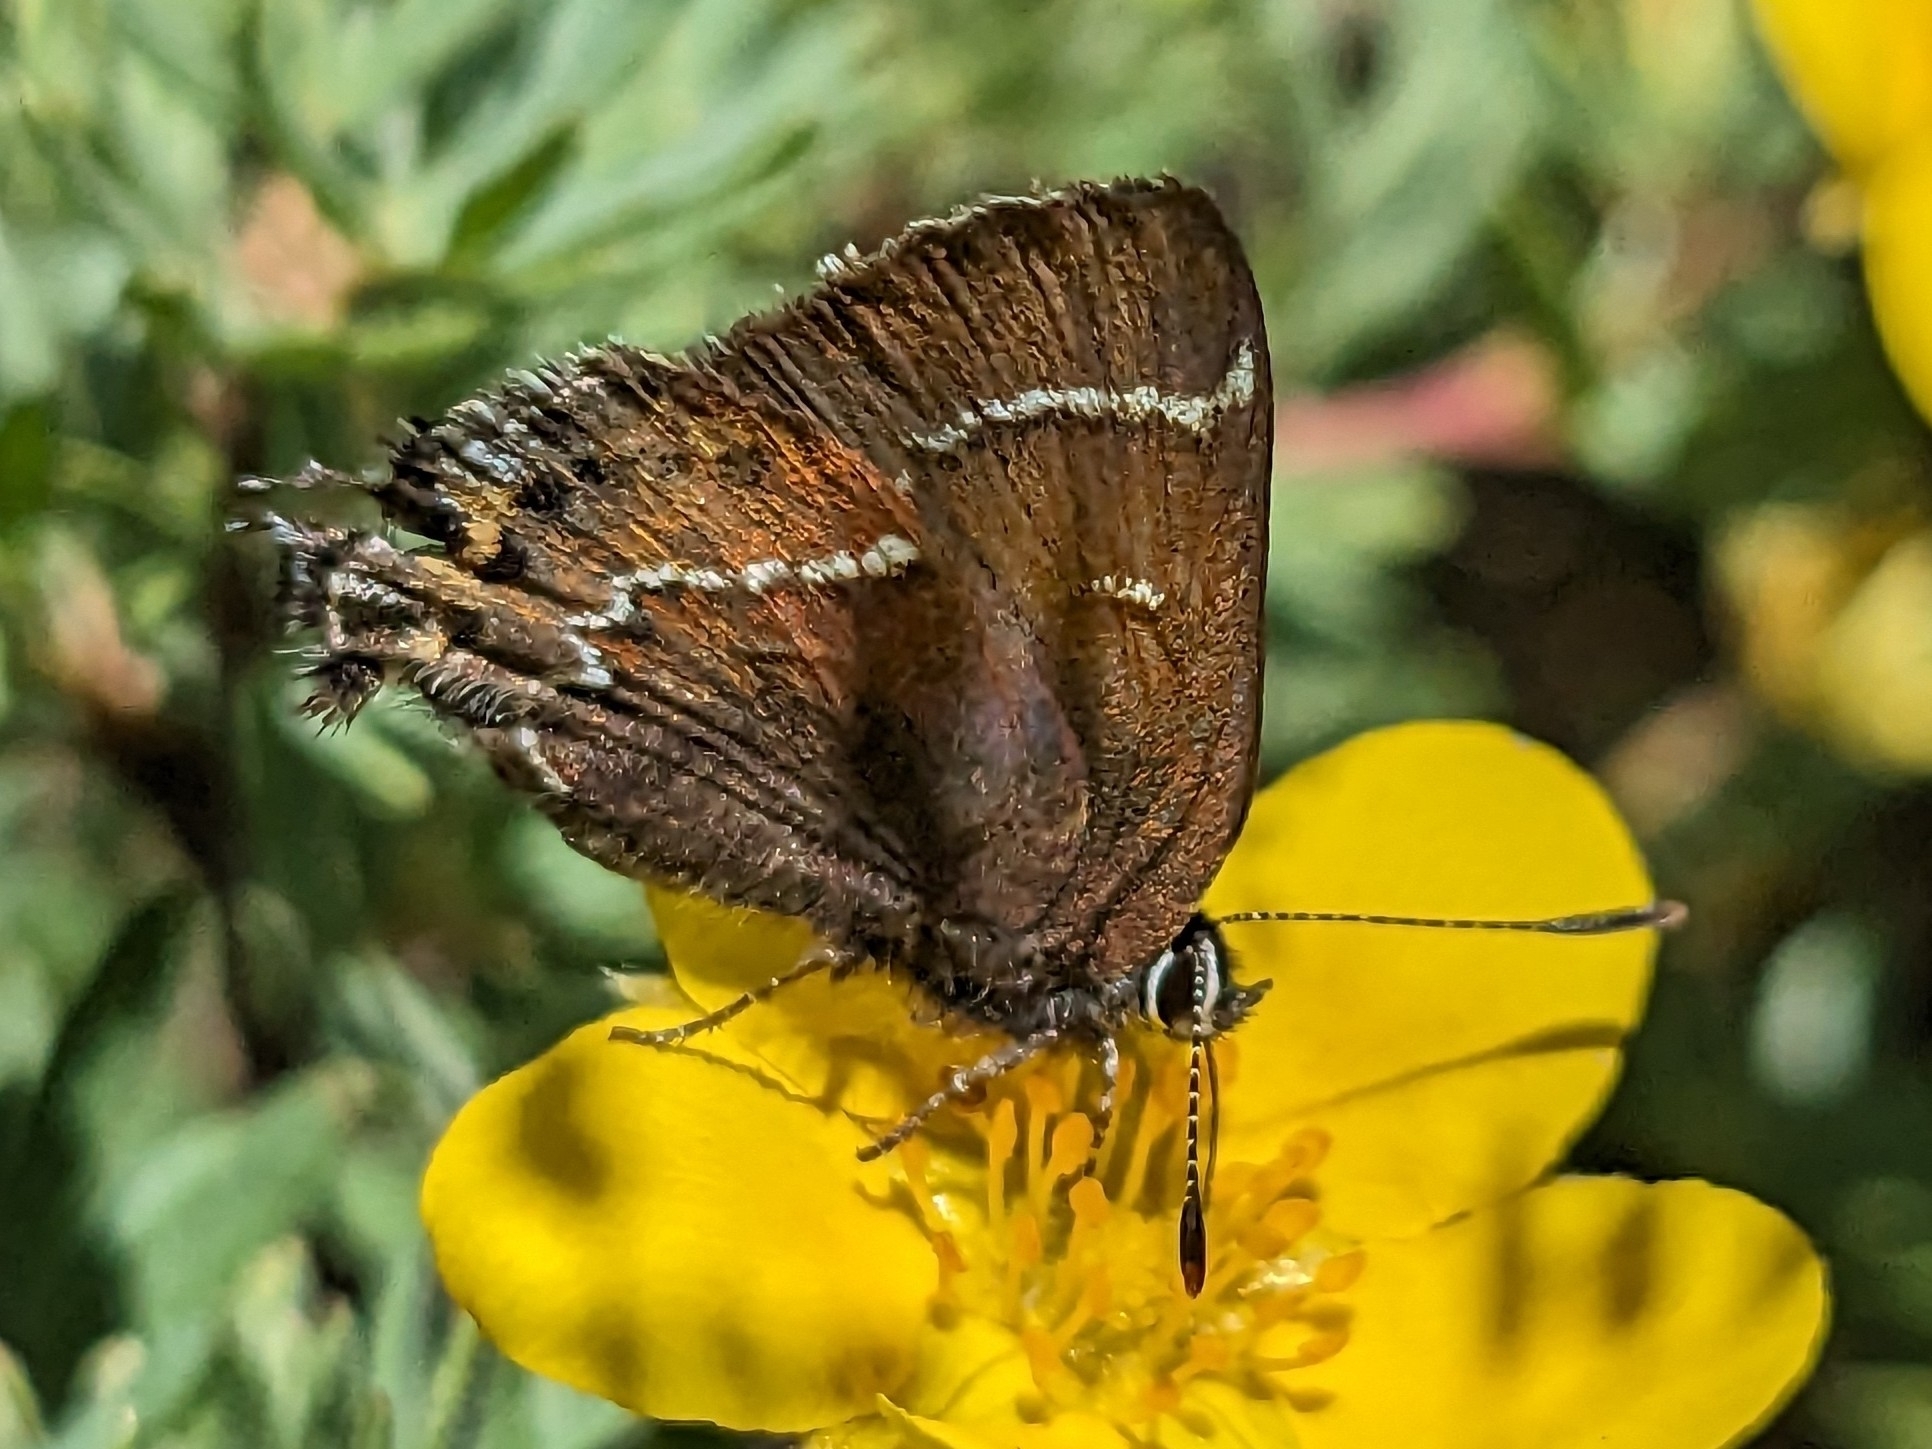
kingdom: Animalia
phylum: Arthropoda
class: Insecta
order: Lepidoptera
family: Lycaenidae
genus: Mitoura
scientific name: Mitoura spinetorum
